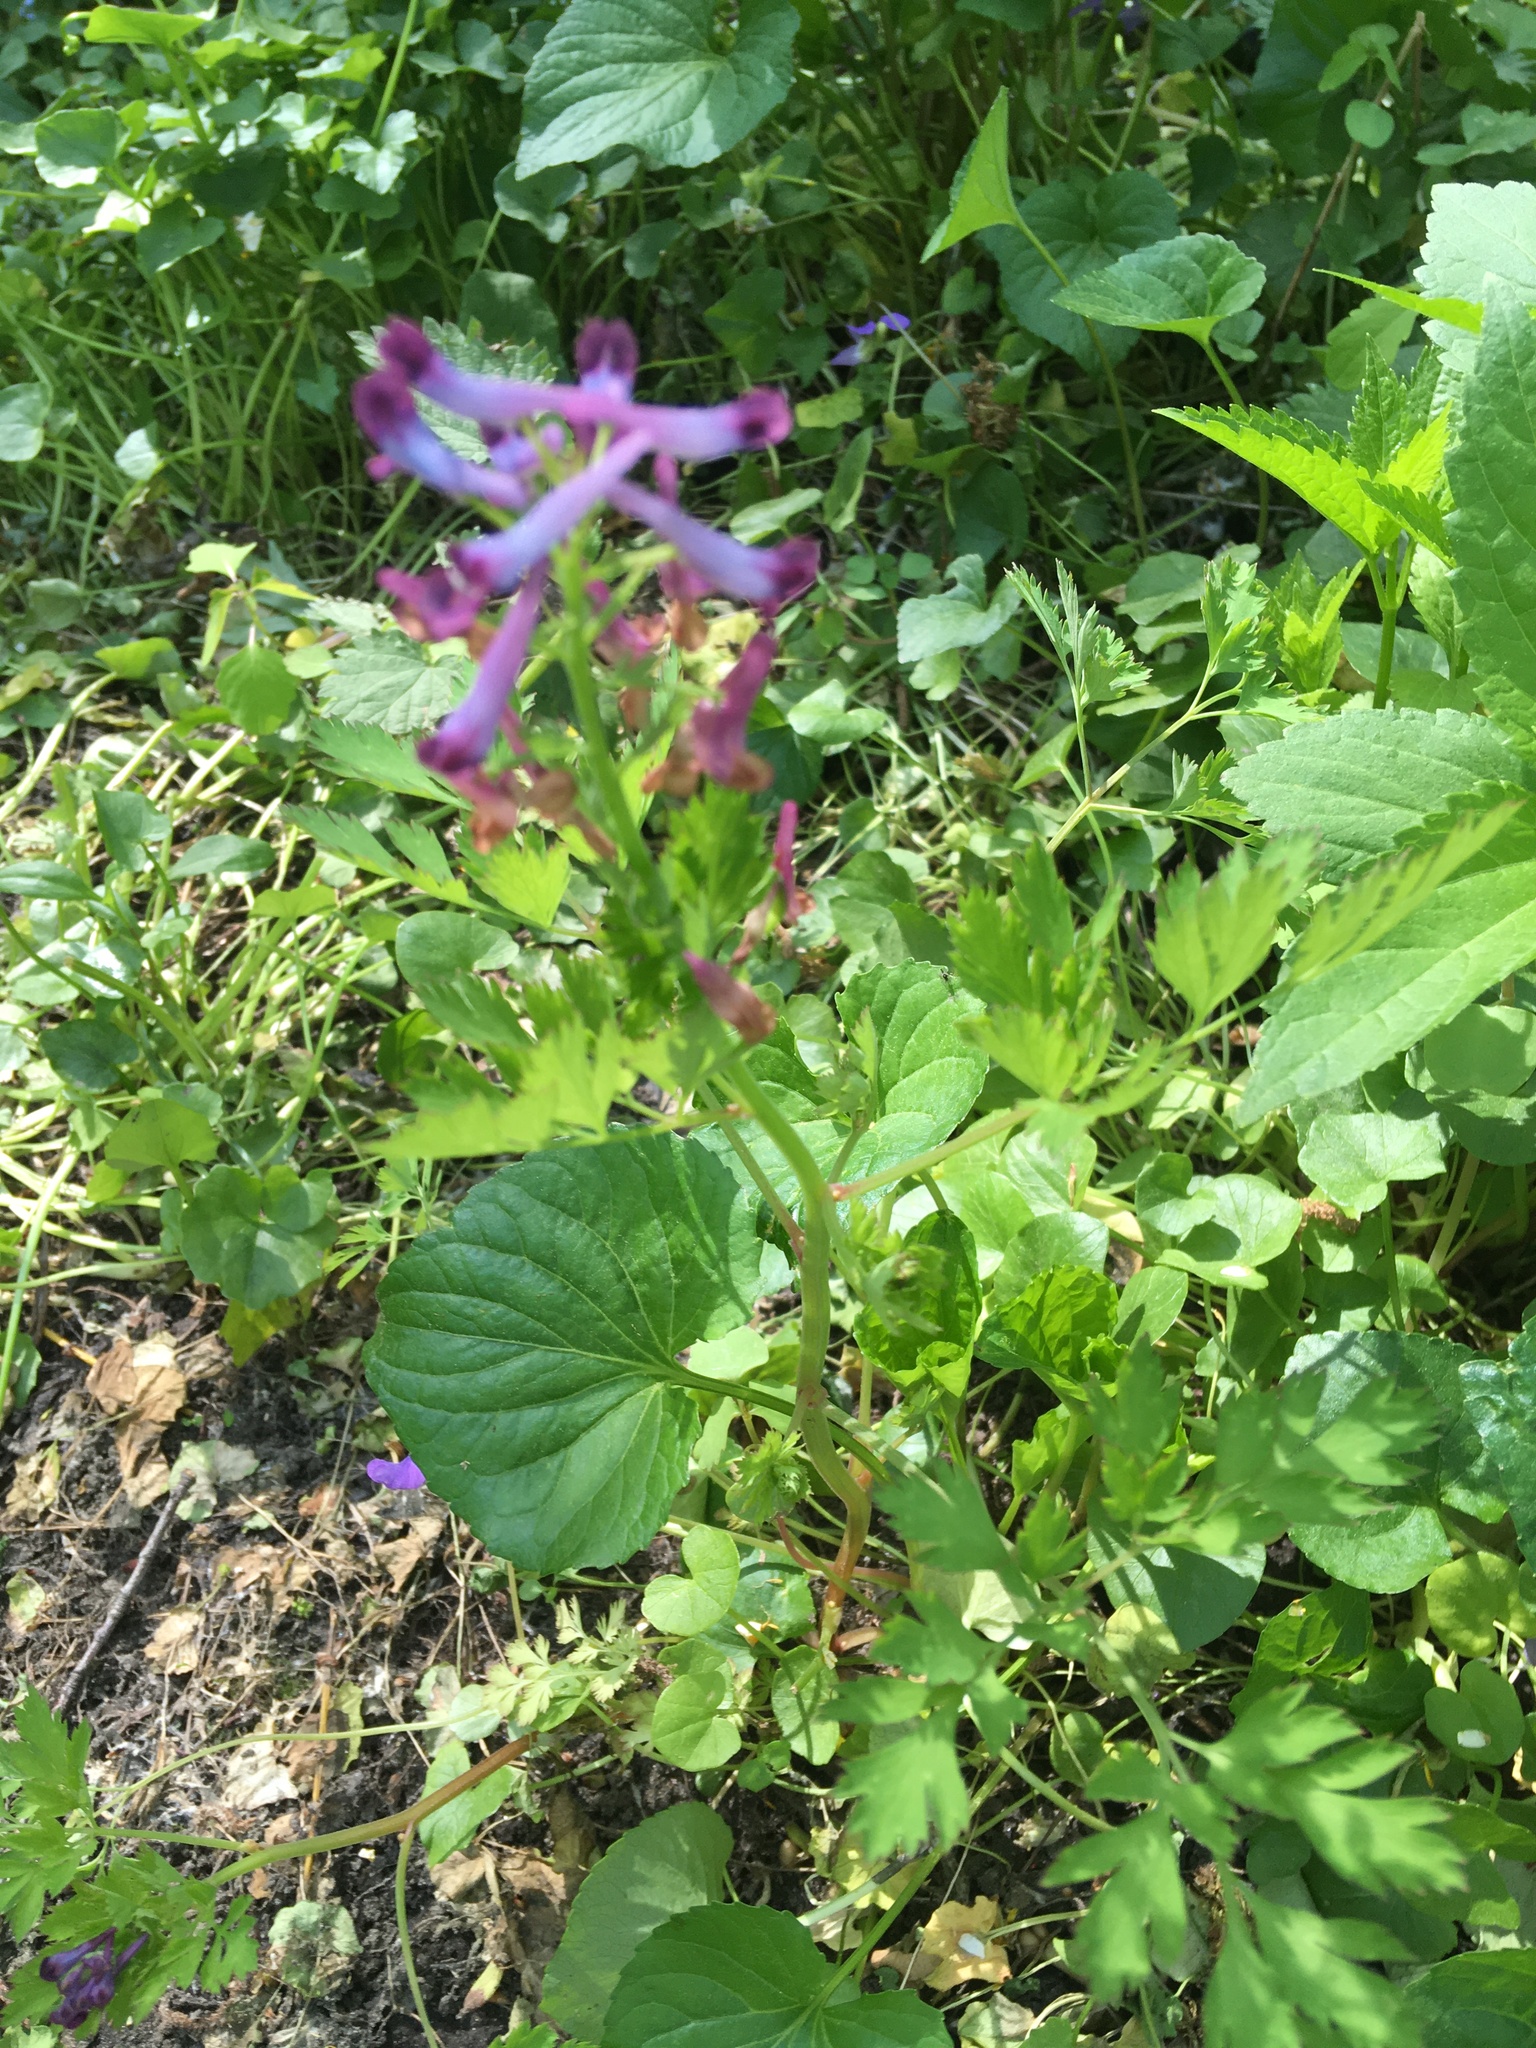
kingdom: Plantae
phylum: Tracheophyta
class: Magnoliopsida
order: Ranunculales
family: Papaveraceae
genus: Corydalis
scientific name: Corydalis incisa
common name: Incised fumewort
